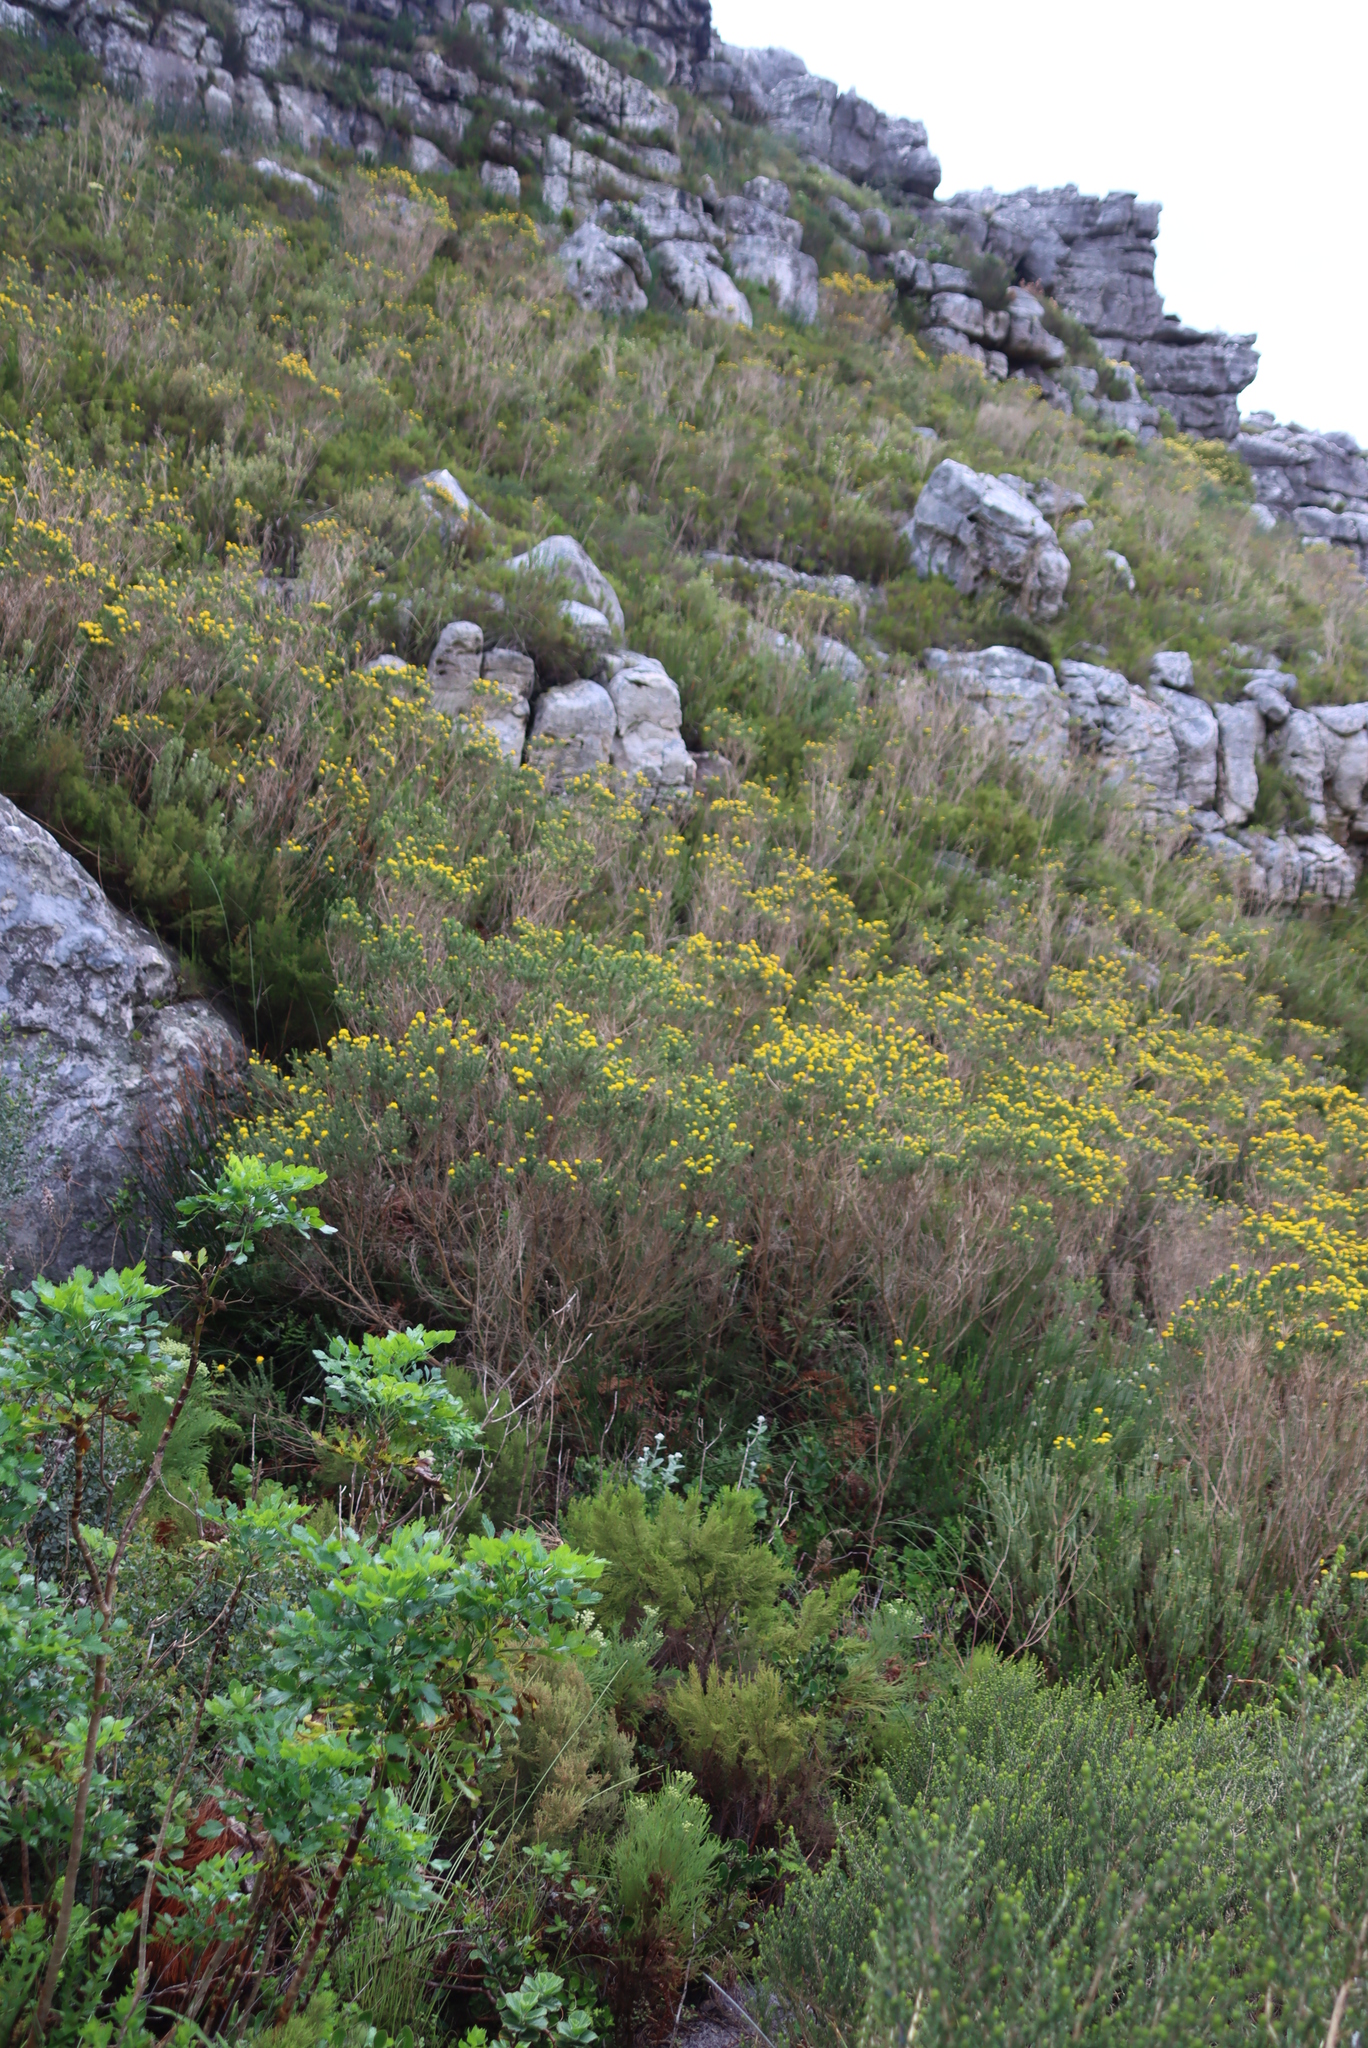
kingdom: Plantae
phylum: Tracheophyta
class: Magnoliopsida
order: Fabales
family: Fabaceae
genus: Aspalathus
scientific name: Aspalathus capitata
